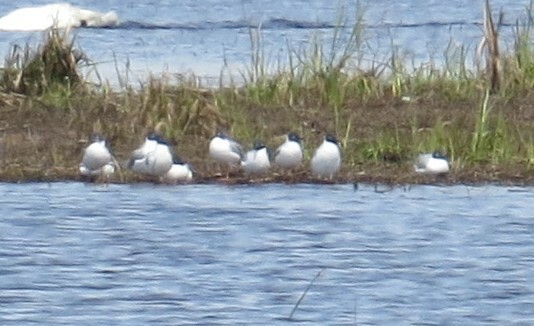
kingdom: Animalia
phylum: Chordata
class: Aves
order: Charadriiformes
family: Laridae
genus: Chroicocephalus
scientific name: Chroicocephalus philadelphia
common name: Bonaparte's gull
